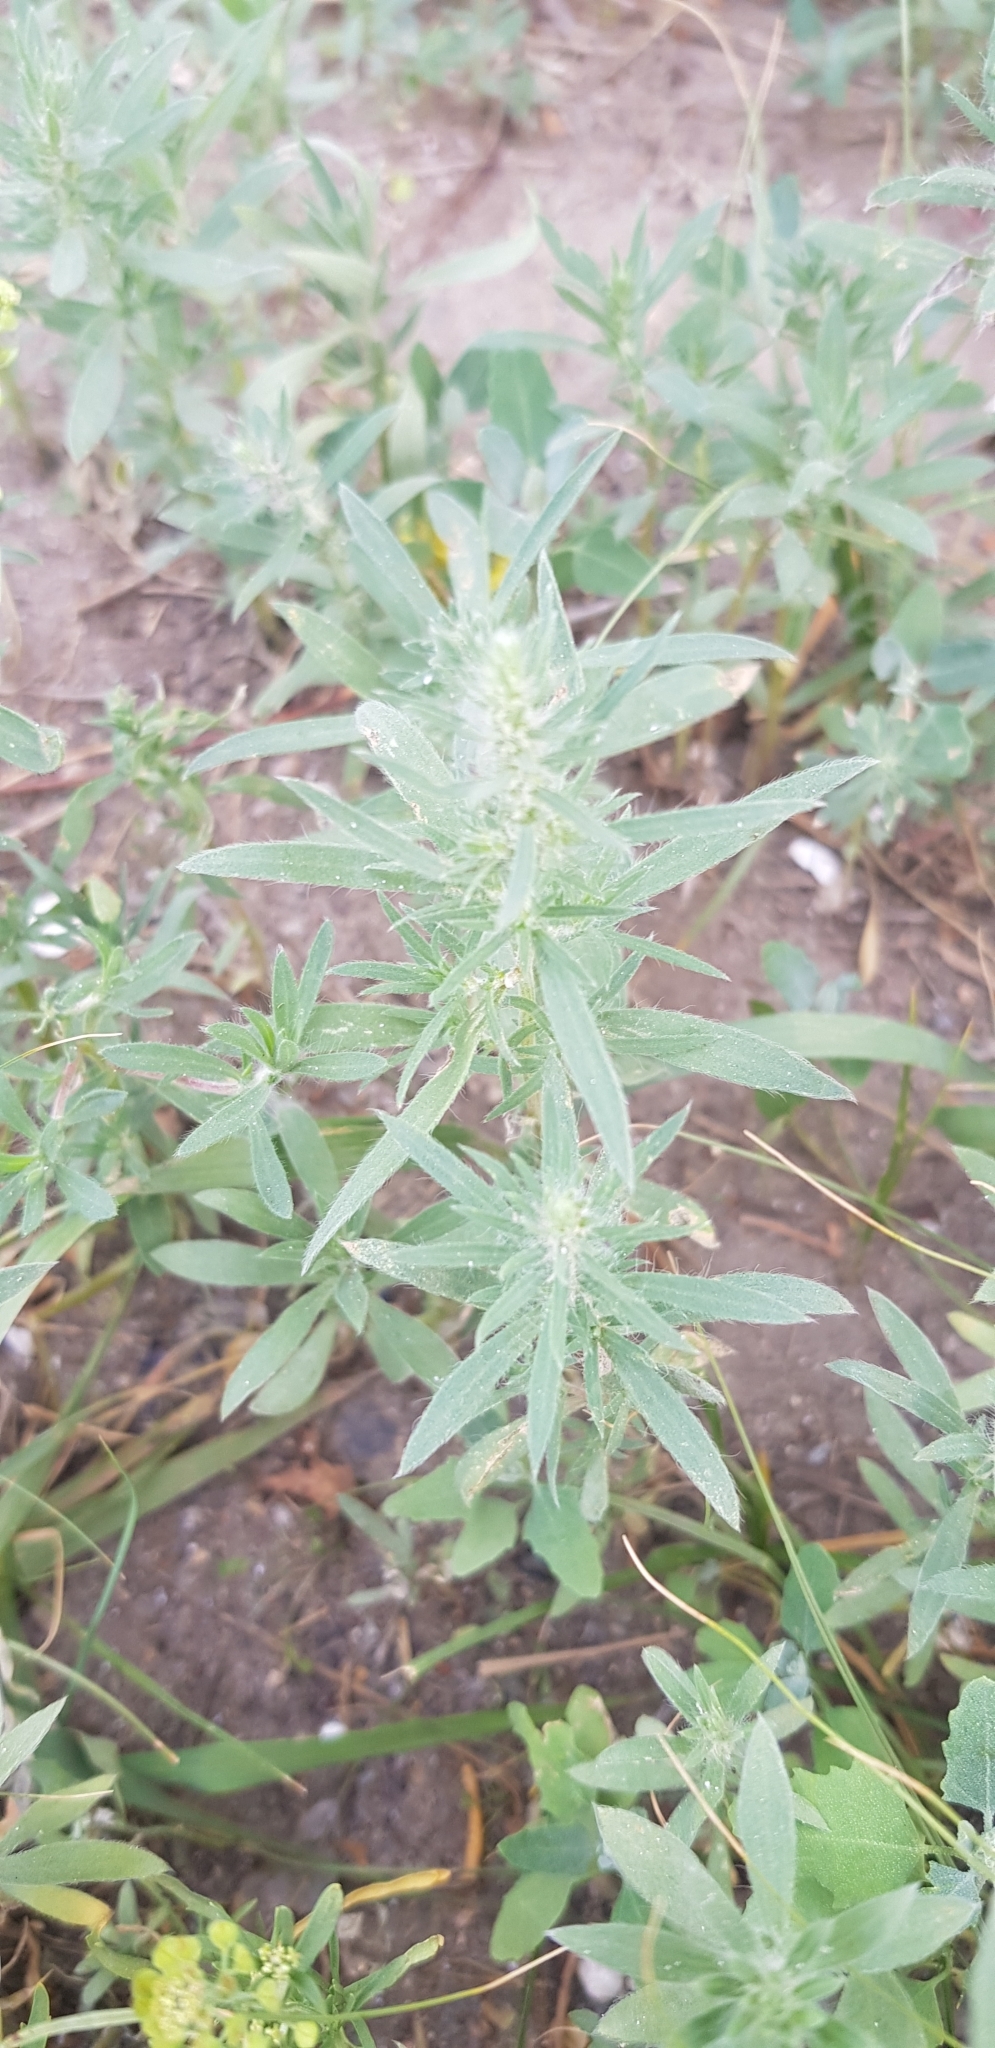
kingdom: Plantae
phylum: Tracheophyta
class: Magnoliopsida
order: Caryophyllales
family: Amaranthaceae
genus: Bassia
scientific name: Bassia scoparia
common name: Belvedere
